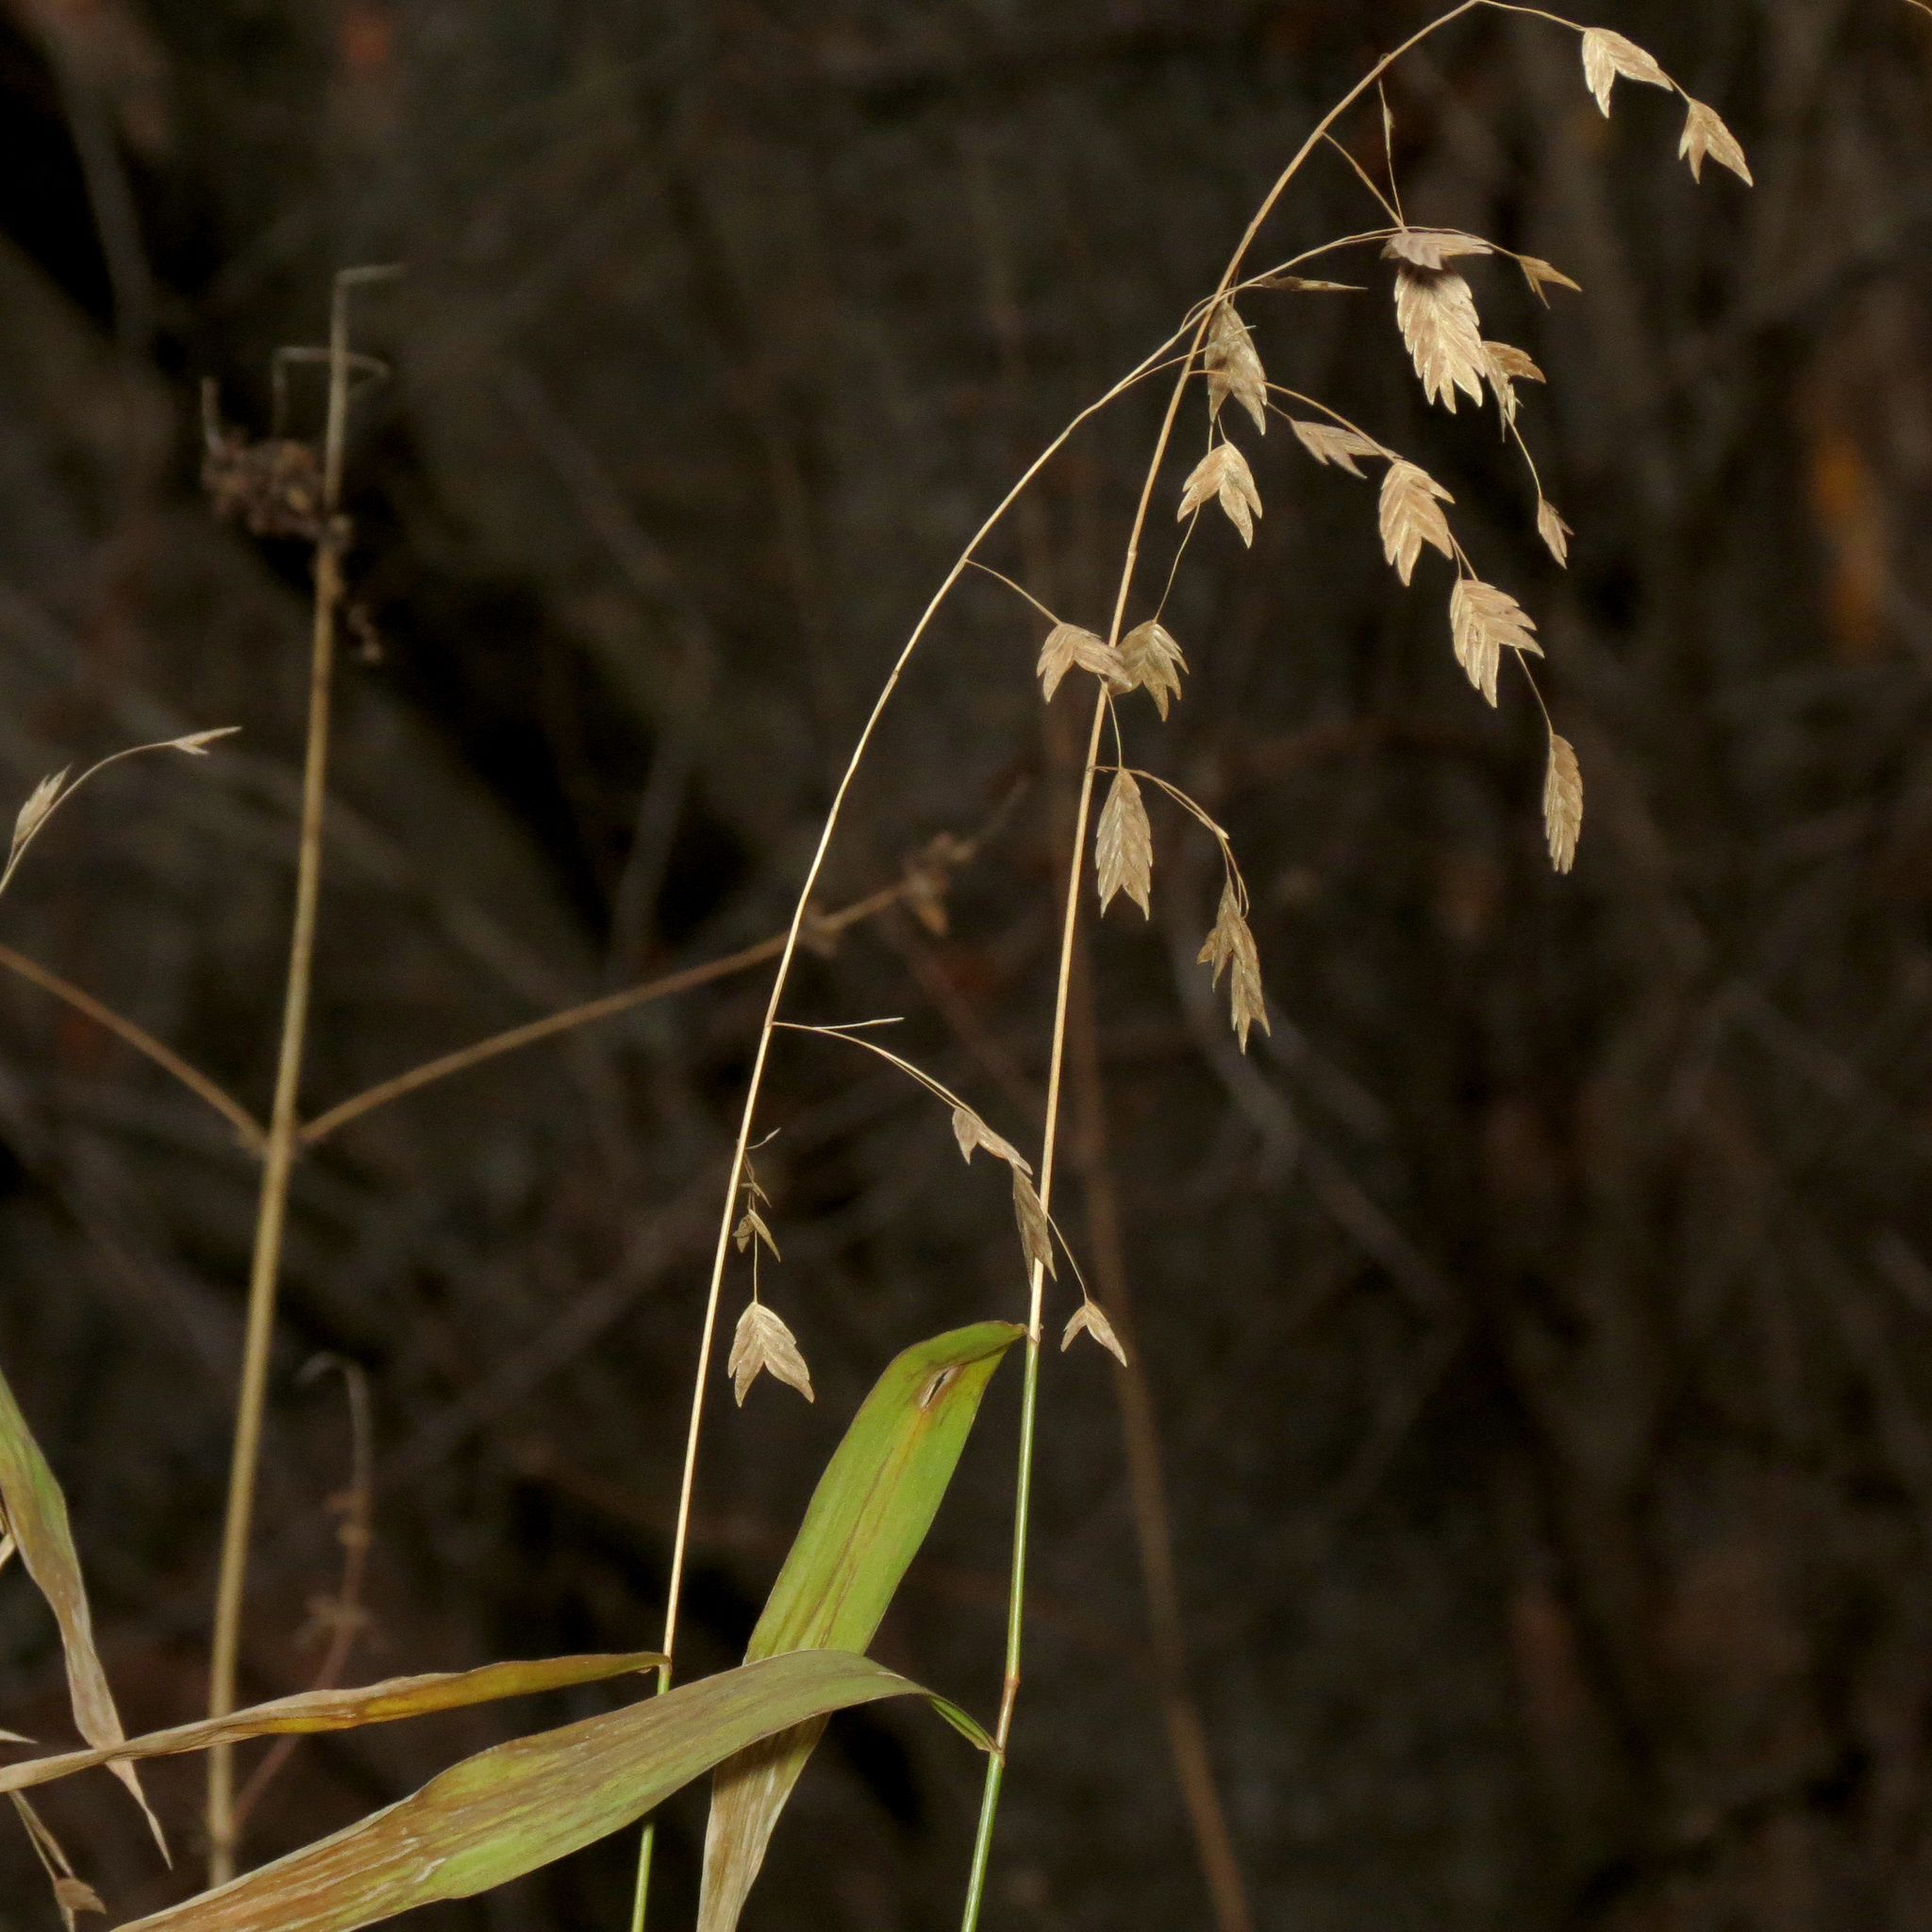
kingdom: Plantae
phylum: Tracheophyta
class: Liliopsida
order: Poales
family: Poaceae
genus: Chasmanthium
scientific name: Chasmanthium latifolium
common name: Broad-leaved chasmanthium
